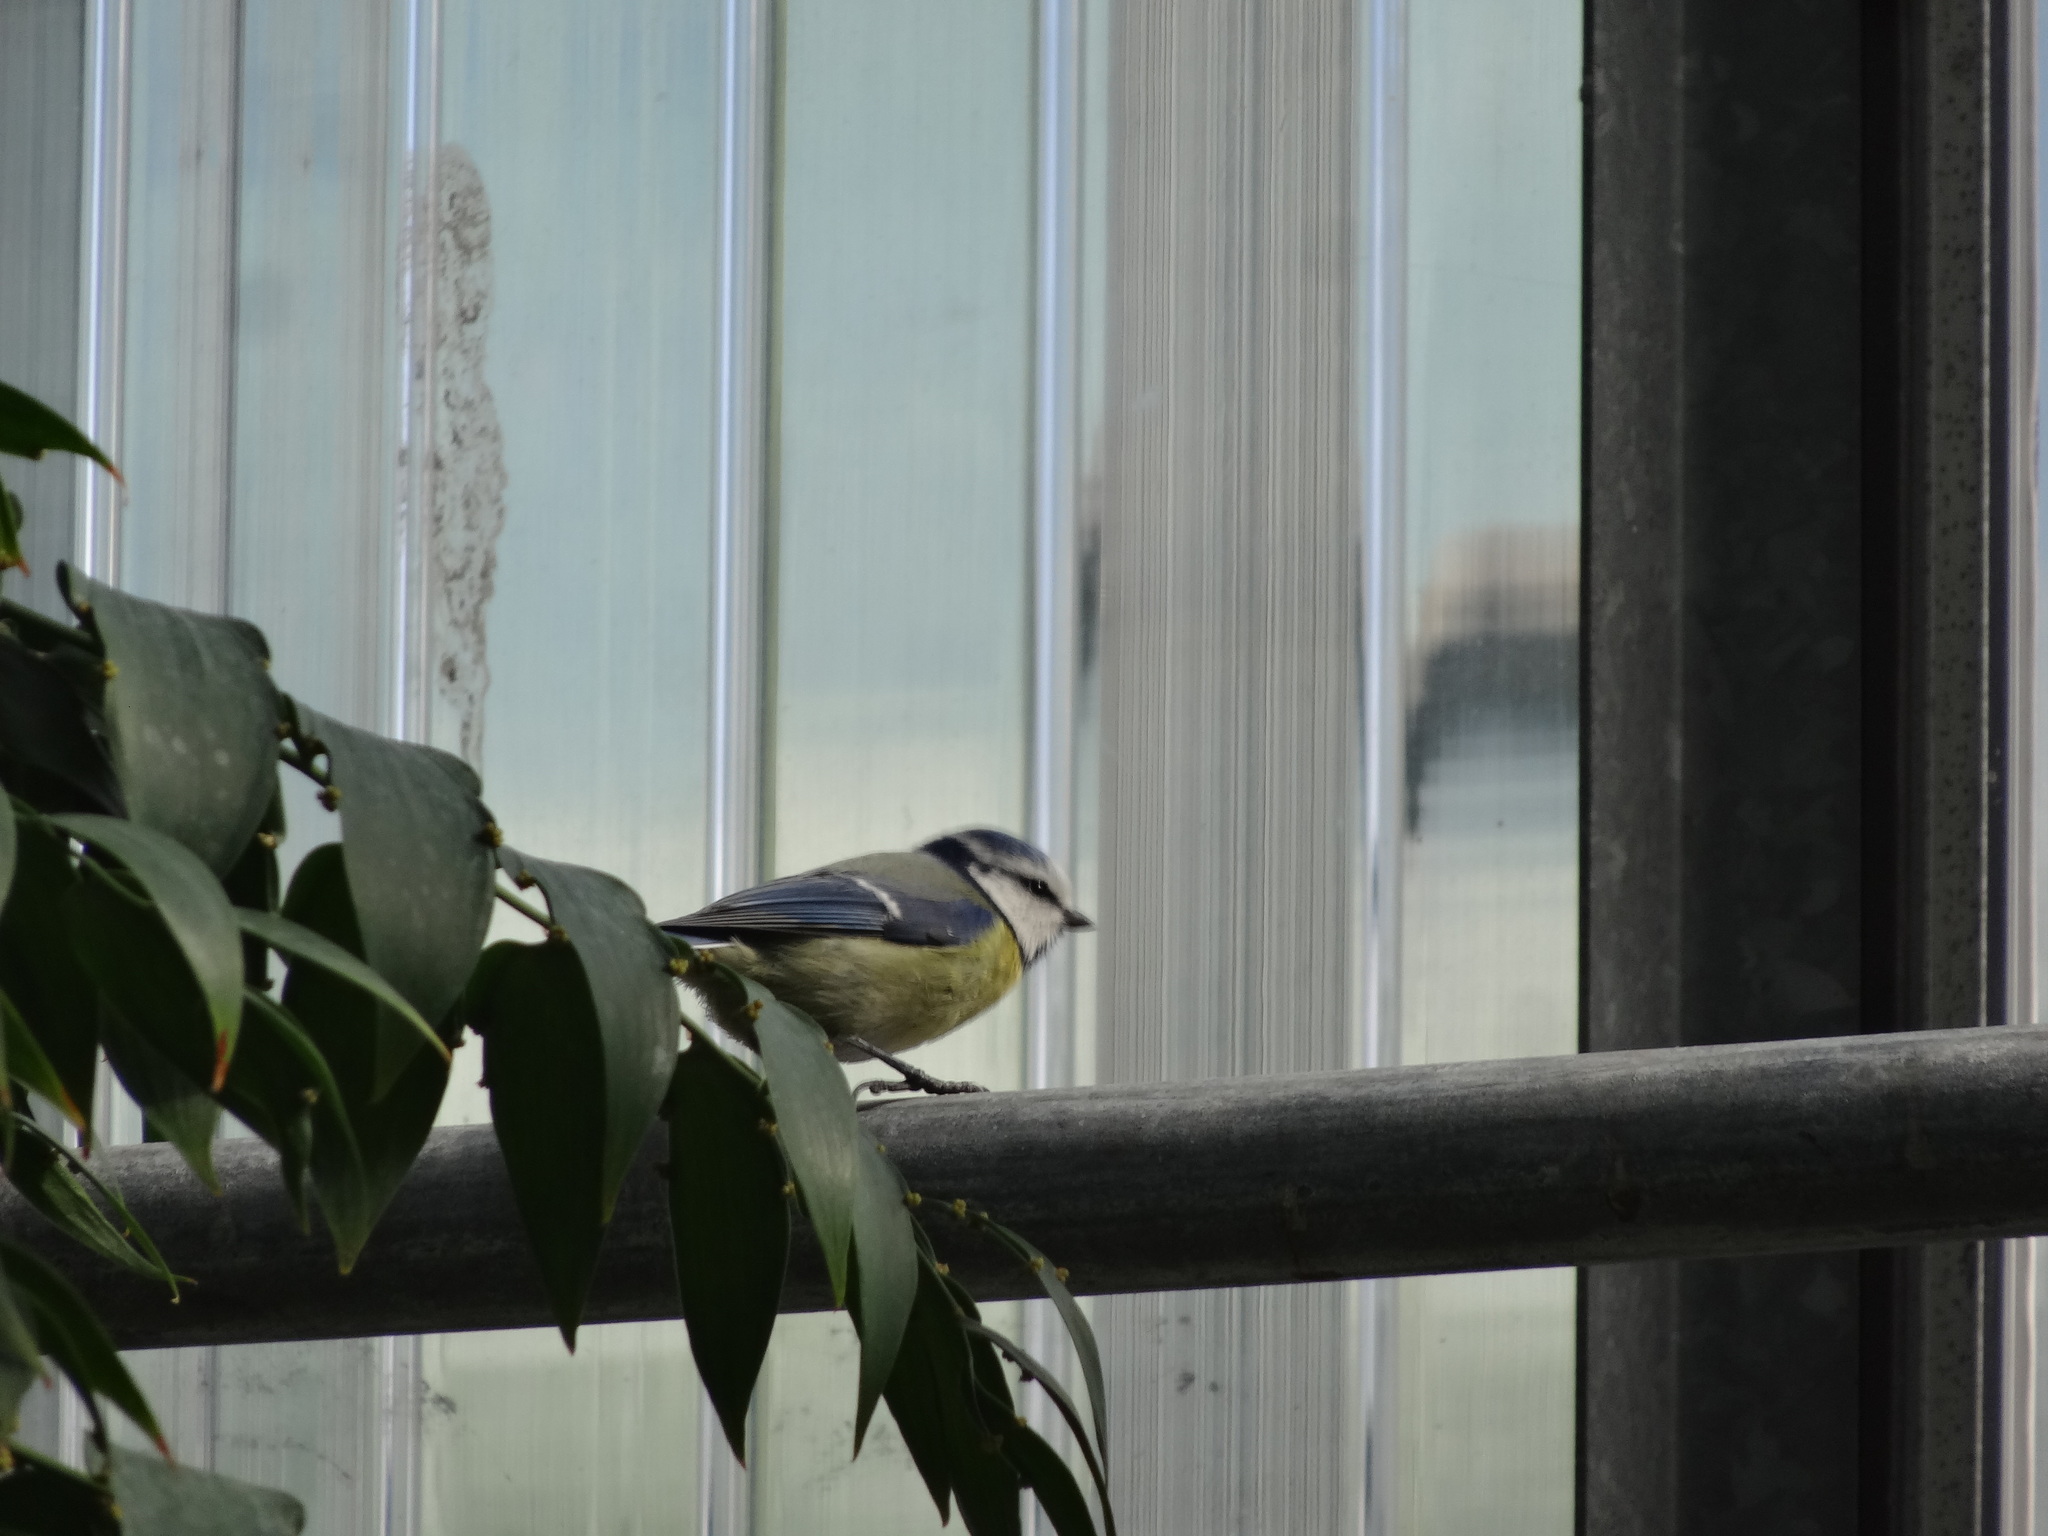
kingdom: Animalia
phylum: Chordata
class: Aves
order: Passeriformes
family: Paridae
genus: Cyanistes
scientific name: Cyanistes caeruleus
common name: Eurasian blue tit
